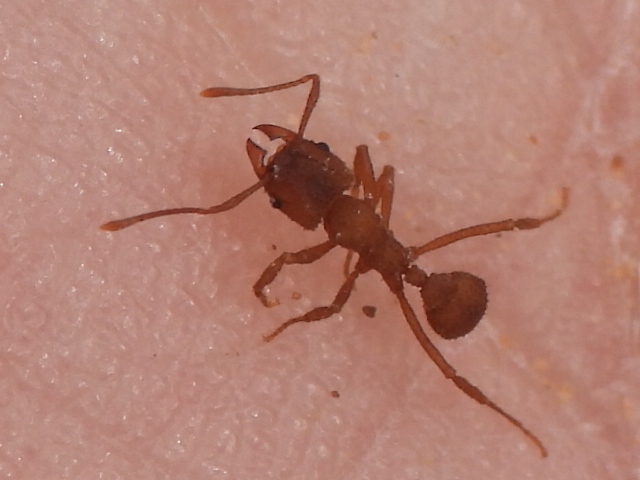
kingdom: Animalia
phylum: Arthropoda
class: Insecta
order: Hymenoptera
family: Formicidae
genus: Trachymyrmex
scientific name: Trachymyrmex septentrionalis
